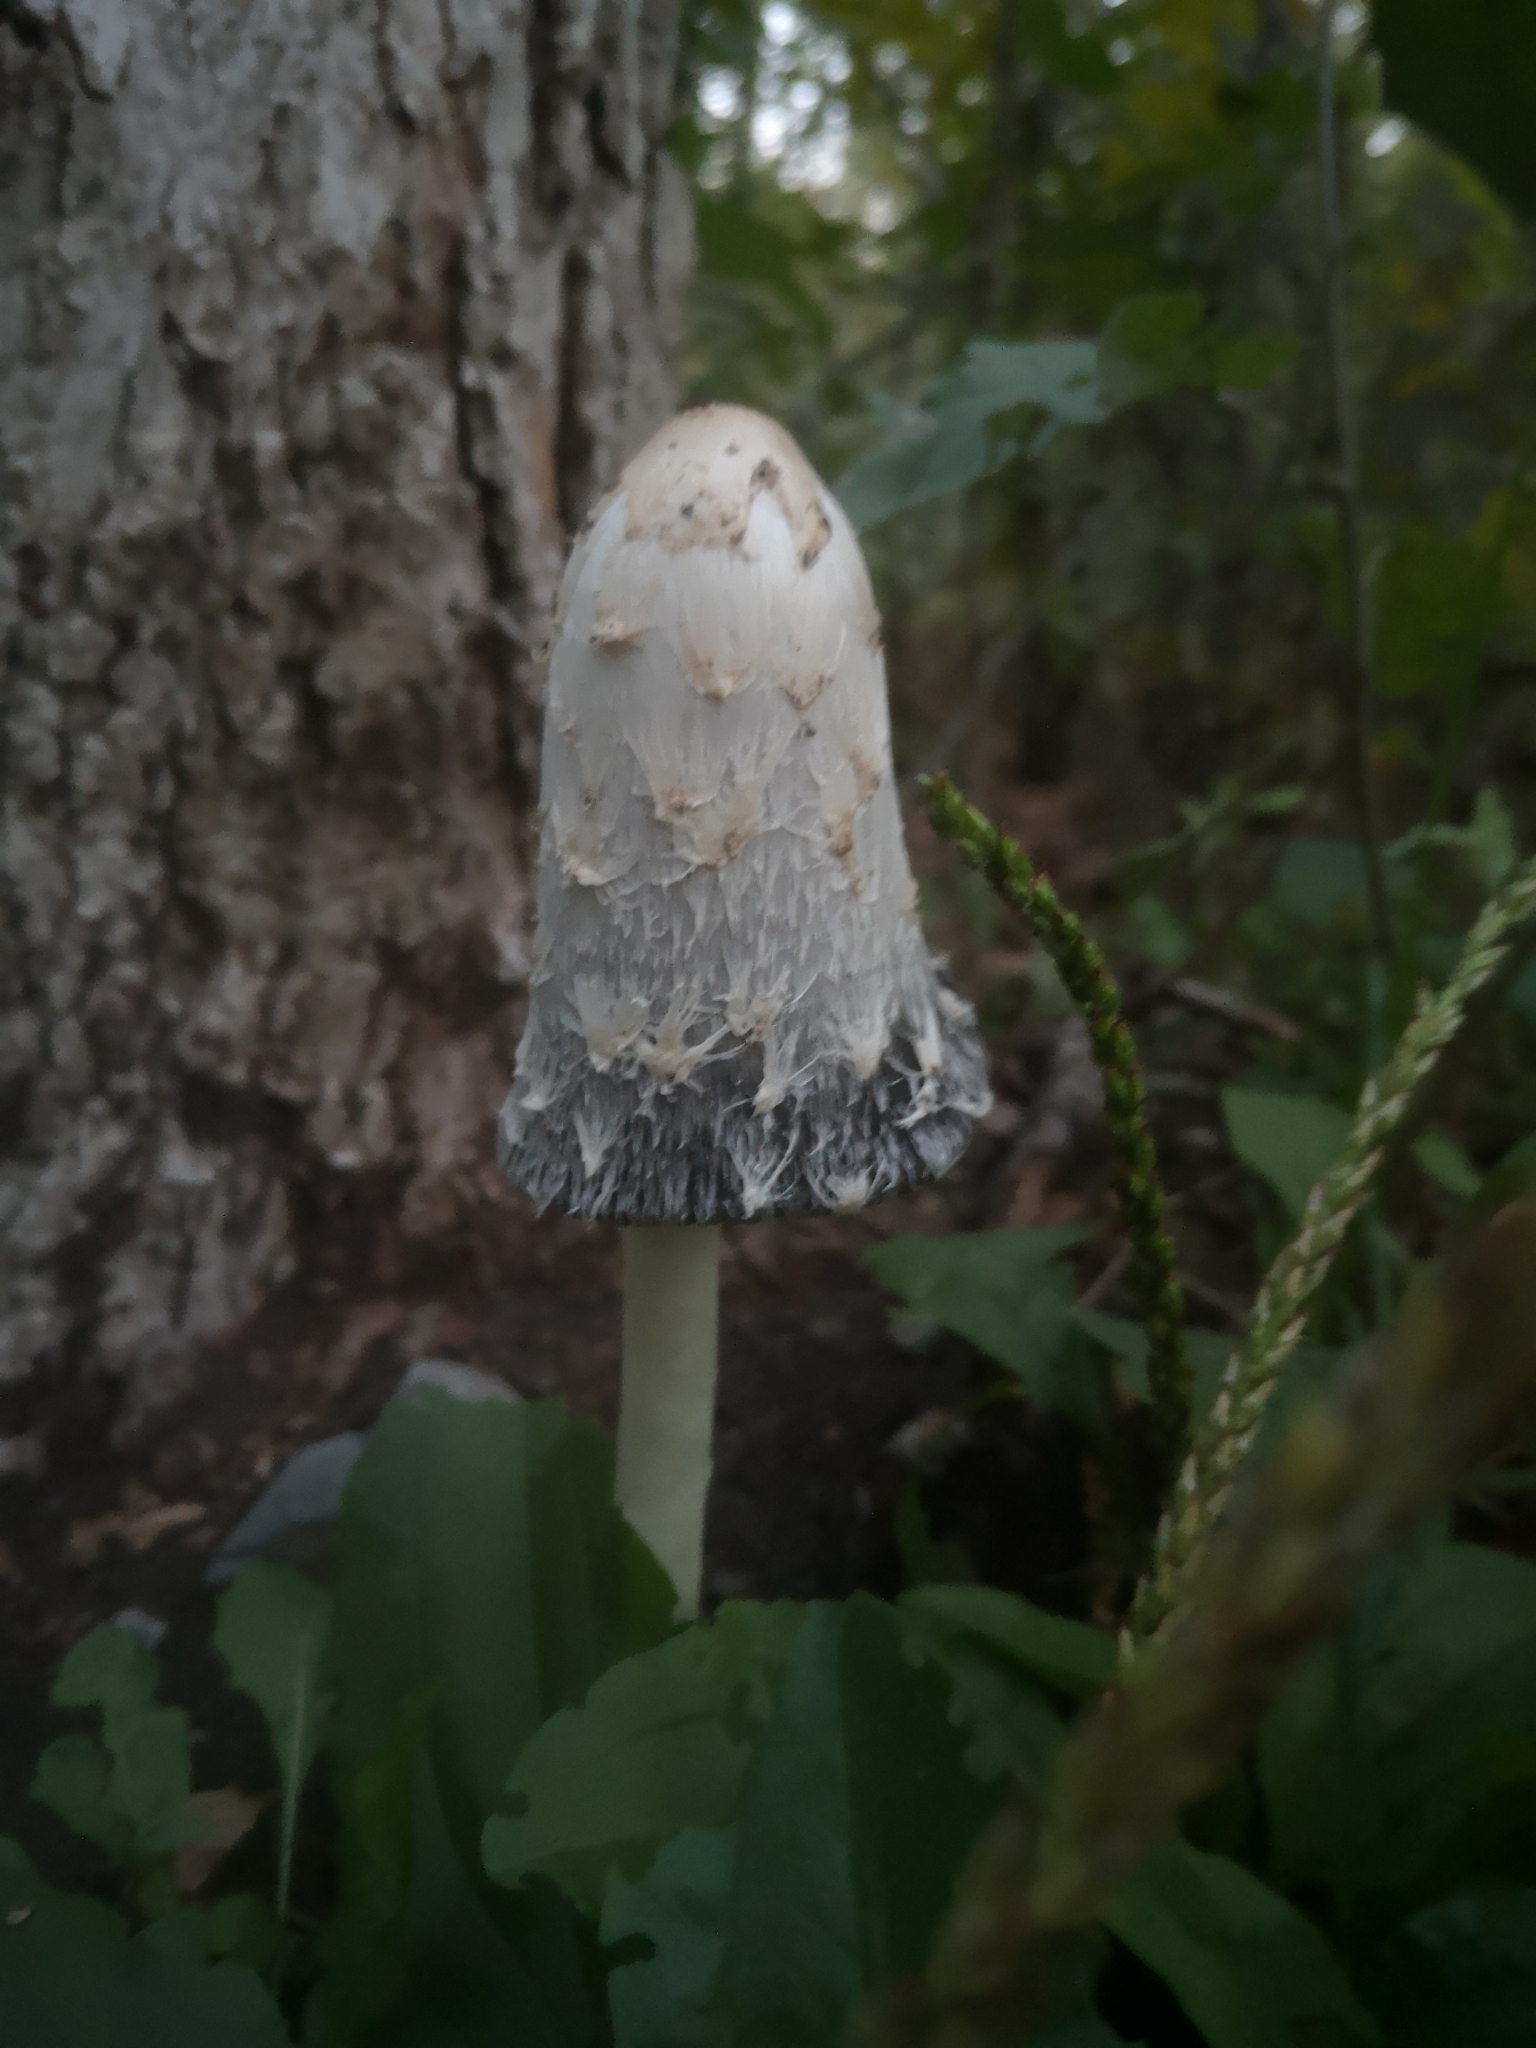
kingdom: Fungi
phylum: Basidiomycota
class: Agaricomycetes
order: Agaricales
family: Agaricaceae
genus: Coprinus
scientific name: Coprinus comatus
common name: Lawyer's wig
